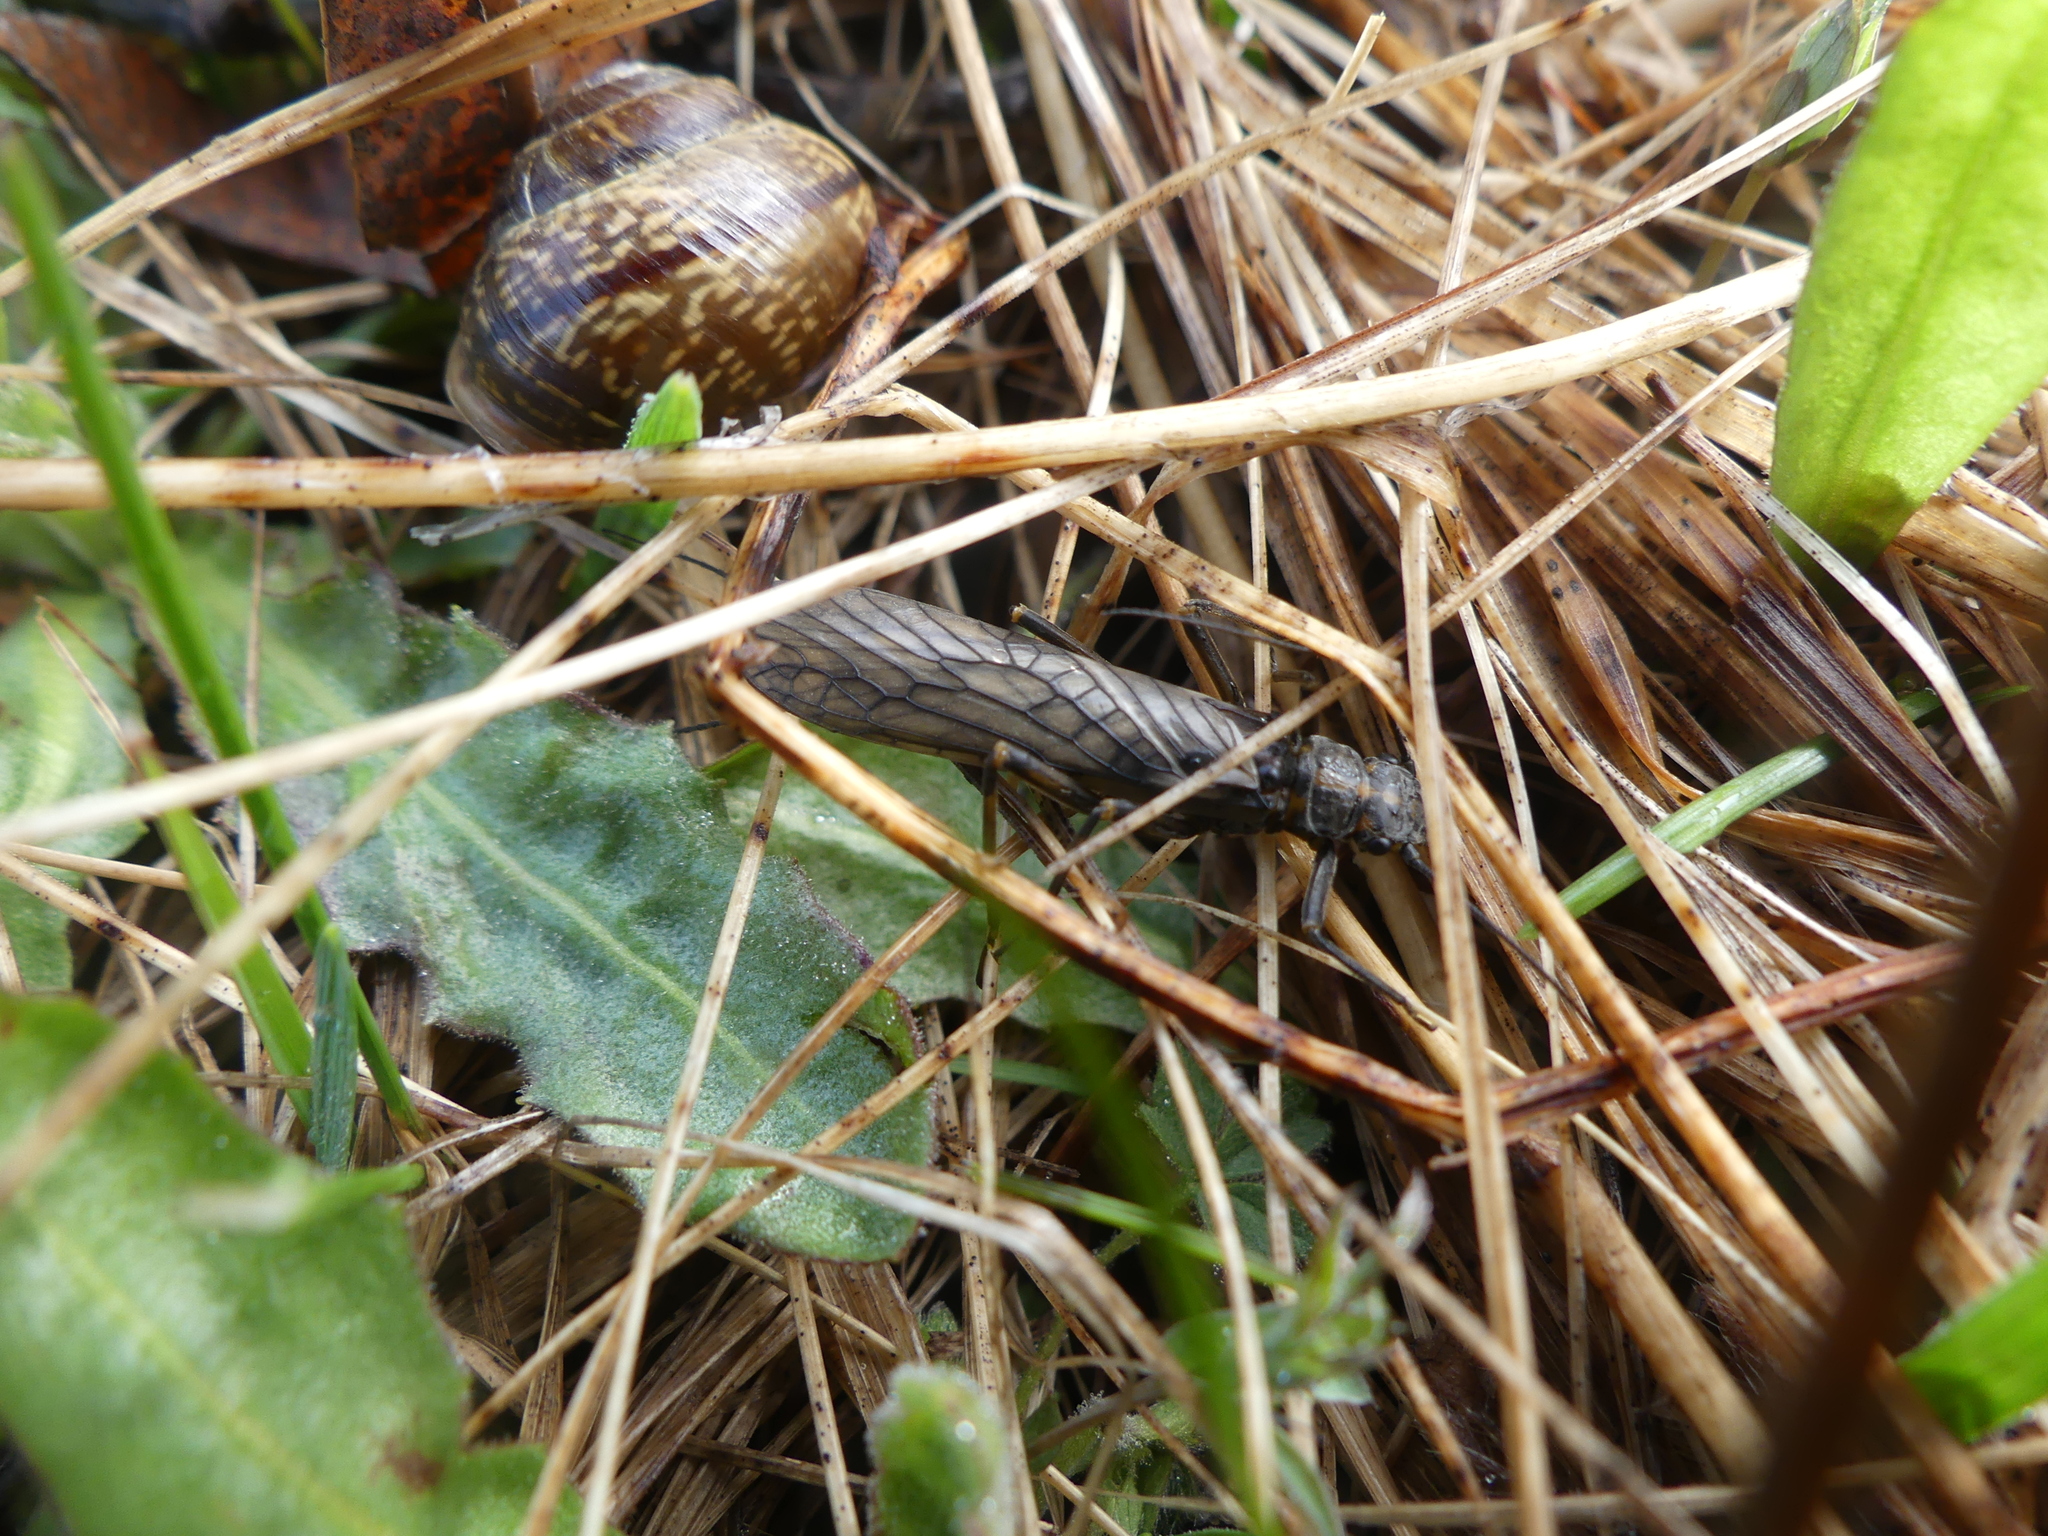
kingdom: Animalia
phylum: Mollusca
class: Gastropoda
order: Stylommatophora
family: Helicidae
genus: Arianta
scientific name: Arianta arbustorum
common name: Copse snail
